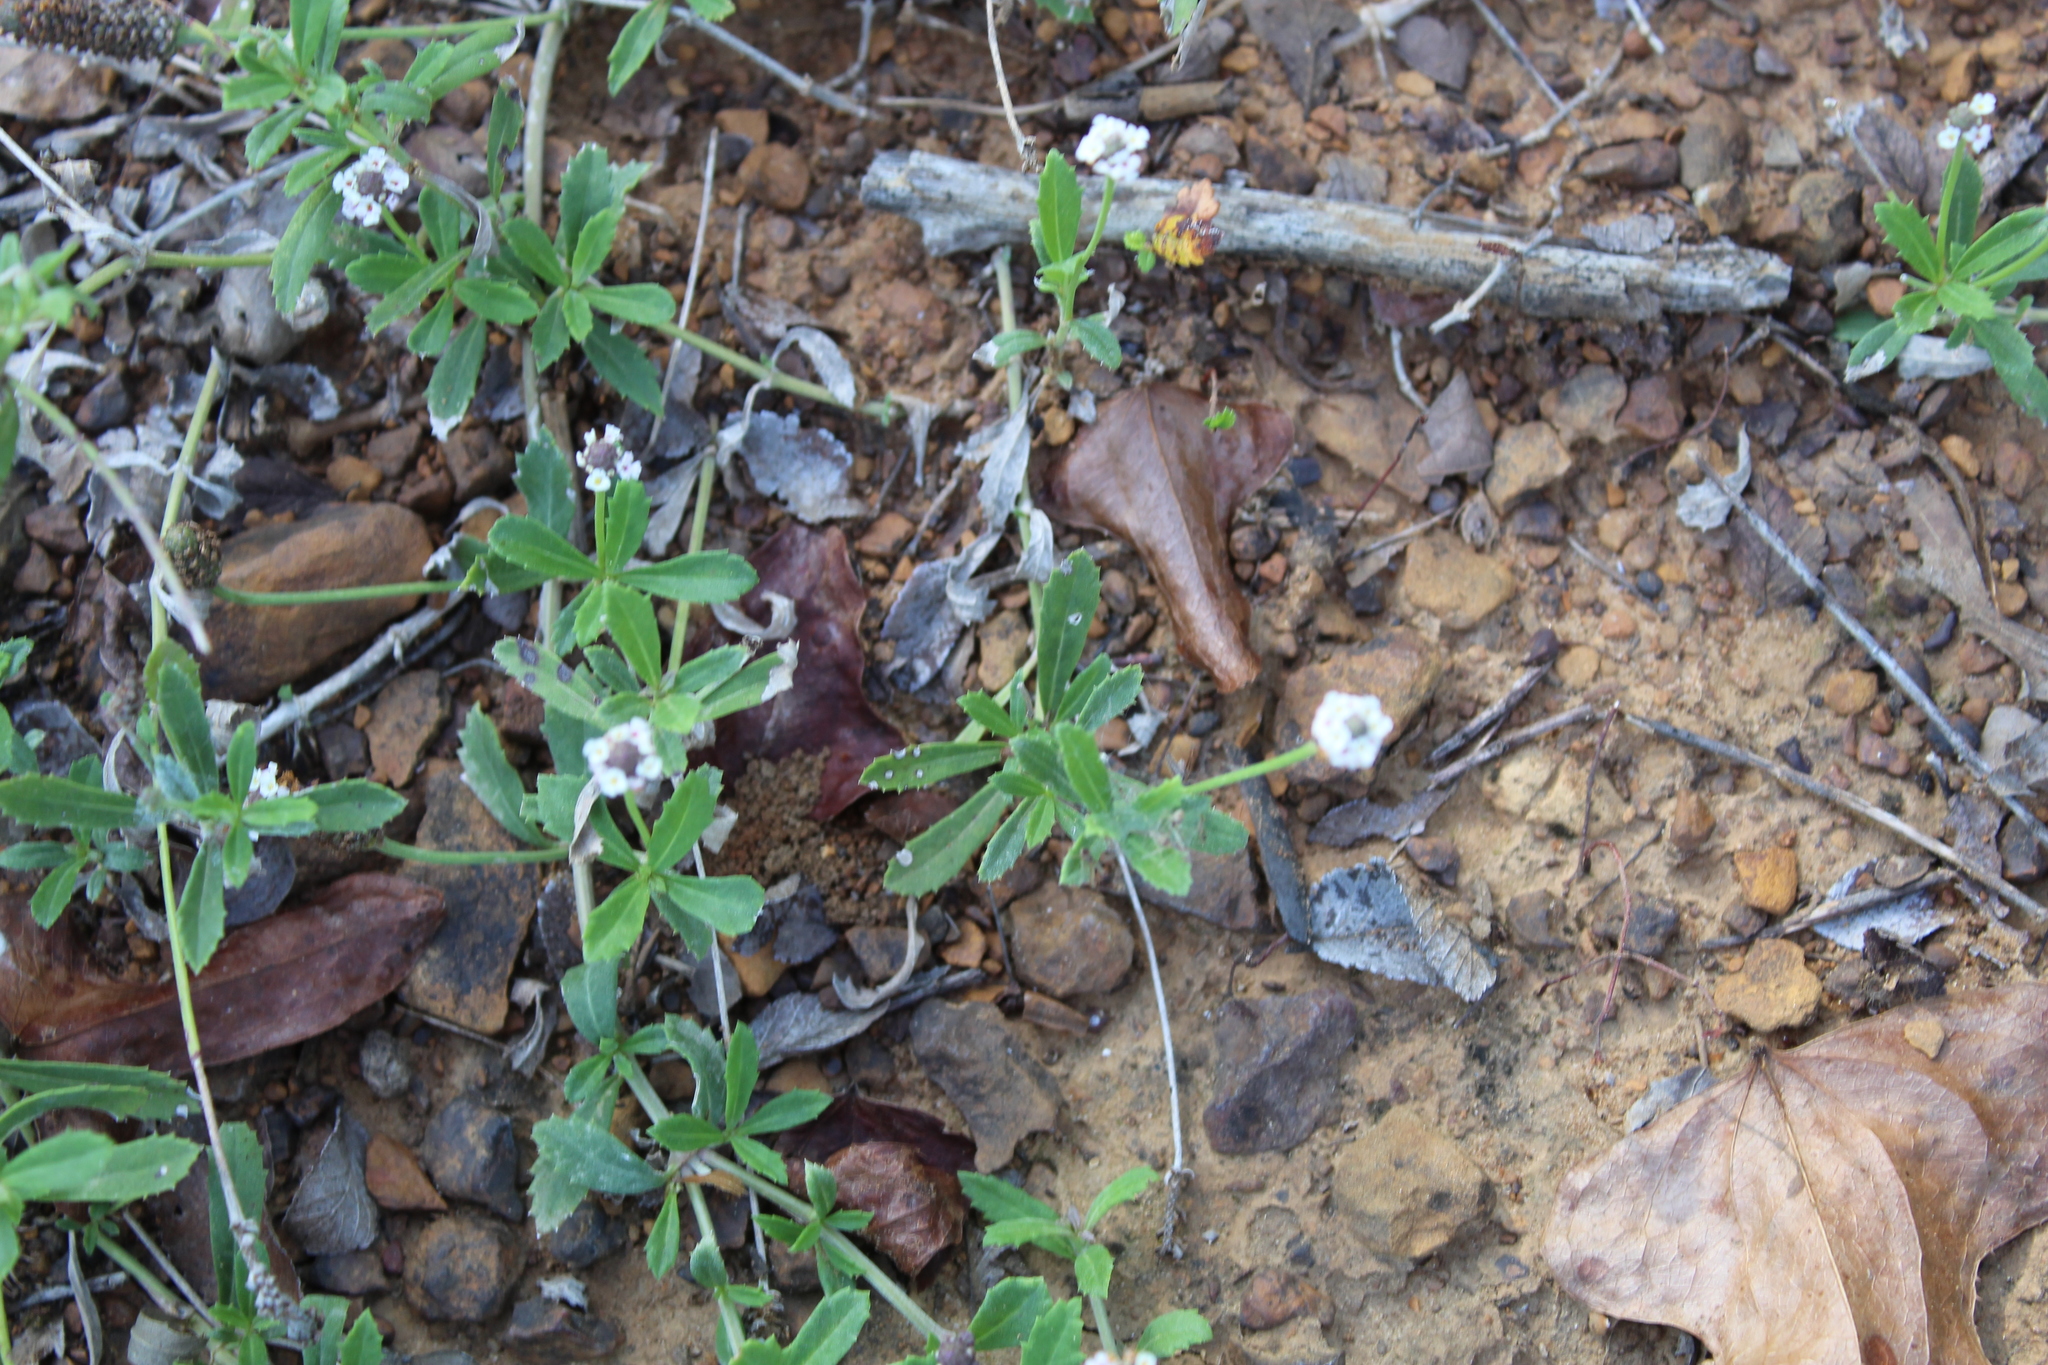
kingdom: Plantae
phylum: Tracheophyta
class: Magnoliopsida
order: Lamiales
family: Verbenaceae
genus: Phyla
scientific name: Phyla nodiflora
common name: Frogfruit
